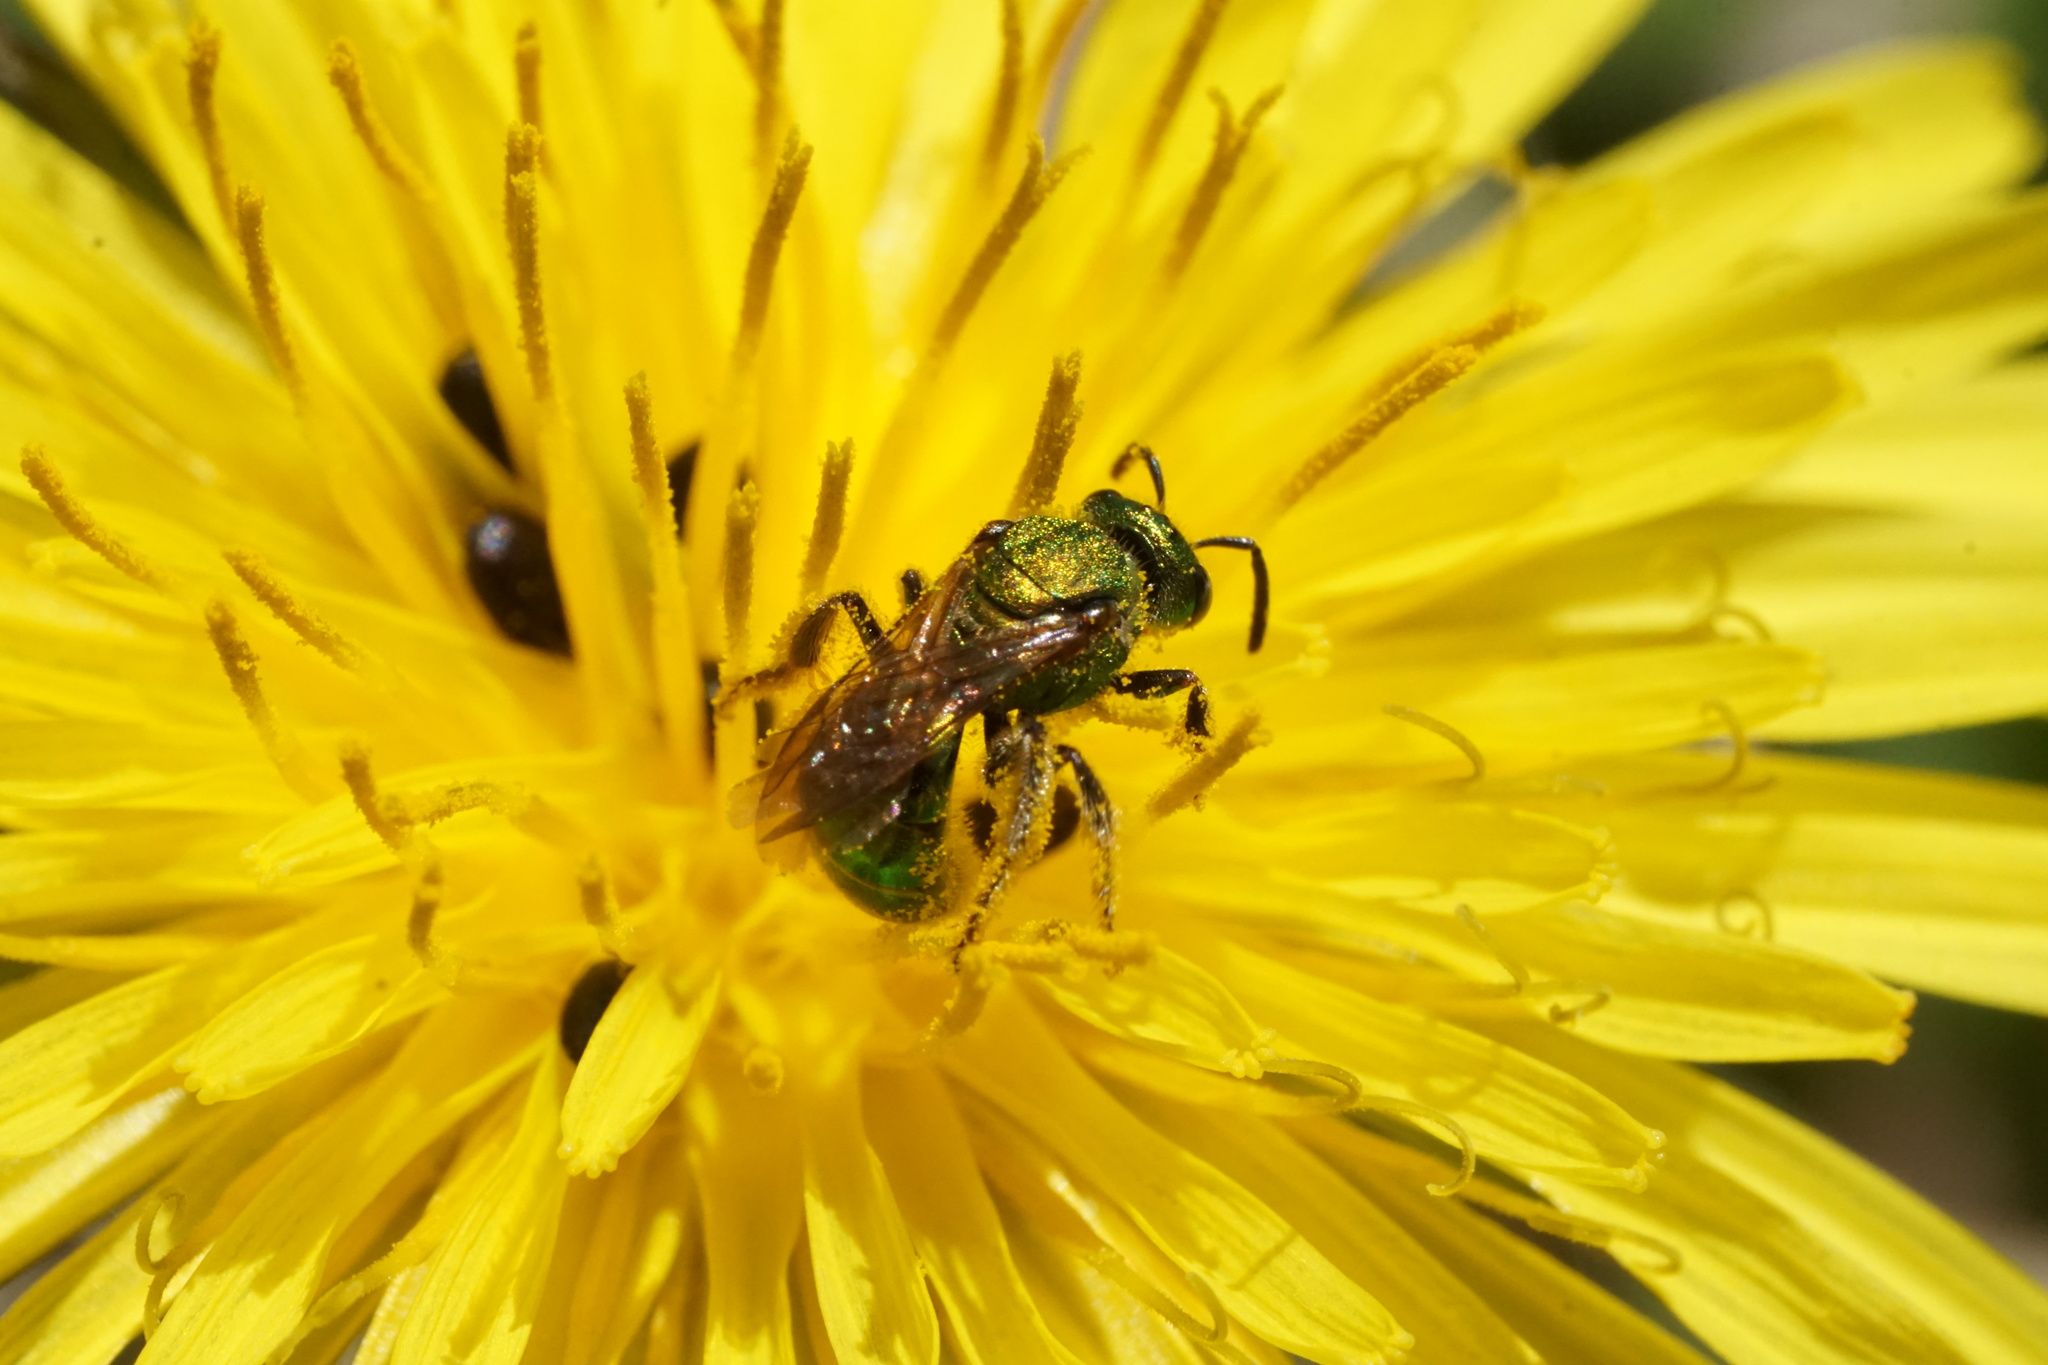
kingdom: Animalia
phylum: Arthropoda
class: Insecta
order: Hymenoptera
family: Halictidae
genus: Augochlorella
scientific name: Augochlorella aurata
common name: Golden sweat bee
